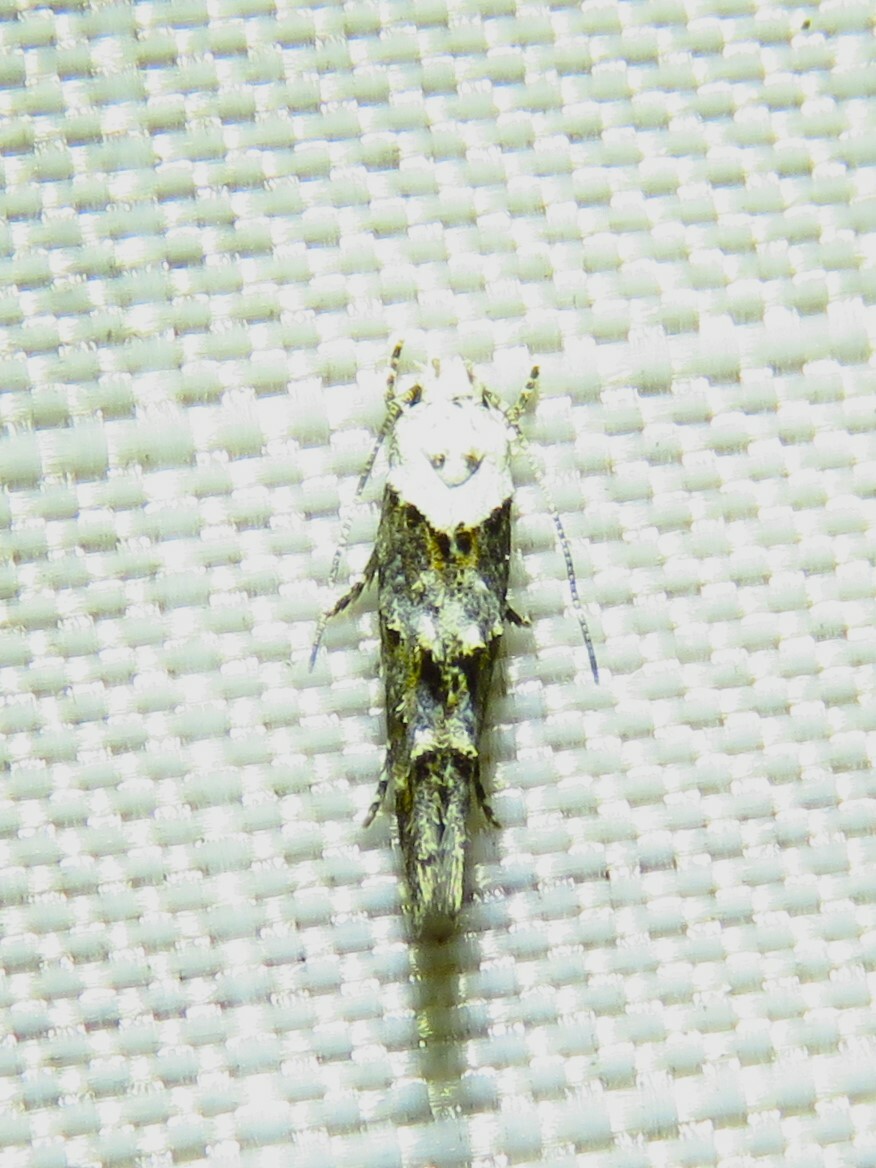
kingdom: Animalia
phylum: Arthropoda
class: Insecta
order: Lepidoptera
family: Momphidae
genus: Mompha
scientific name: Mompha albocapitella
